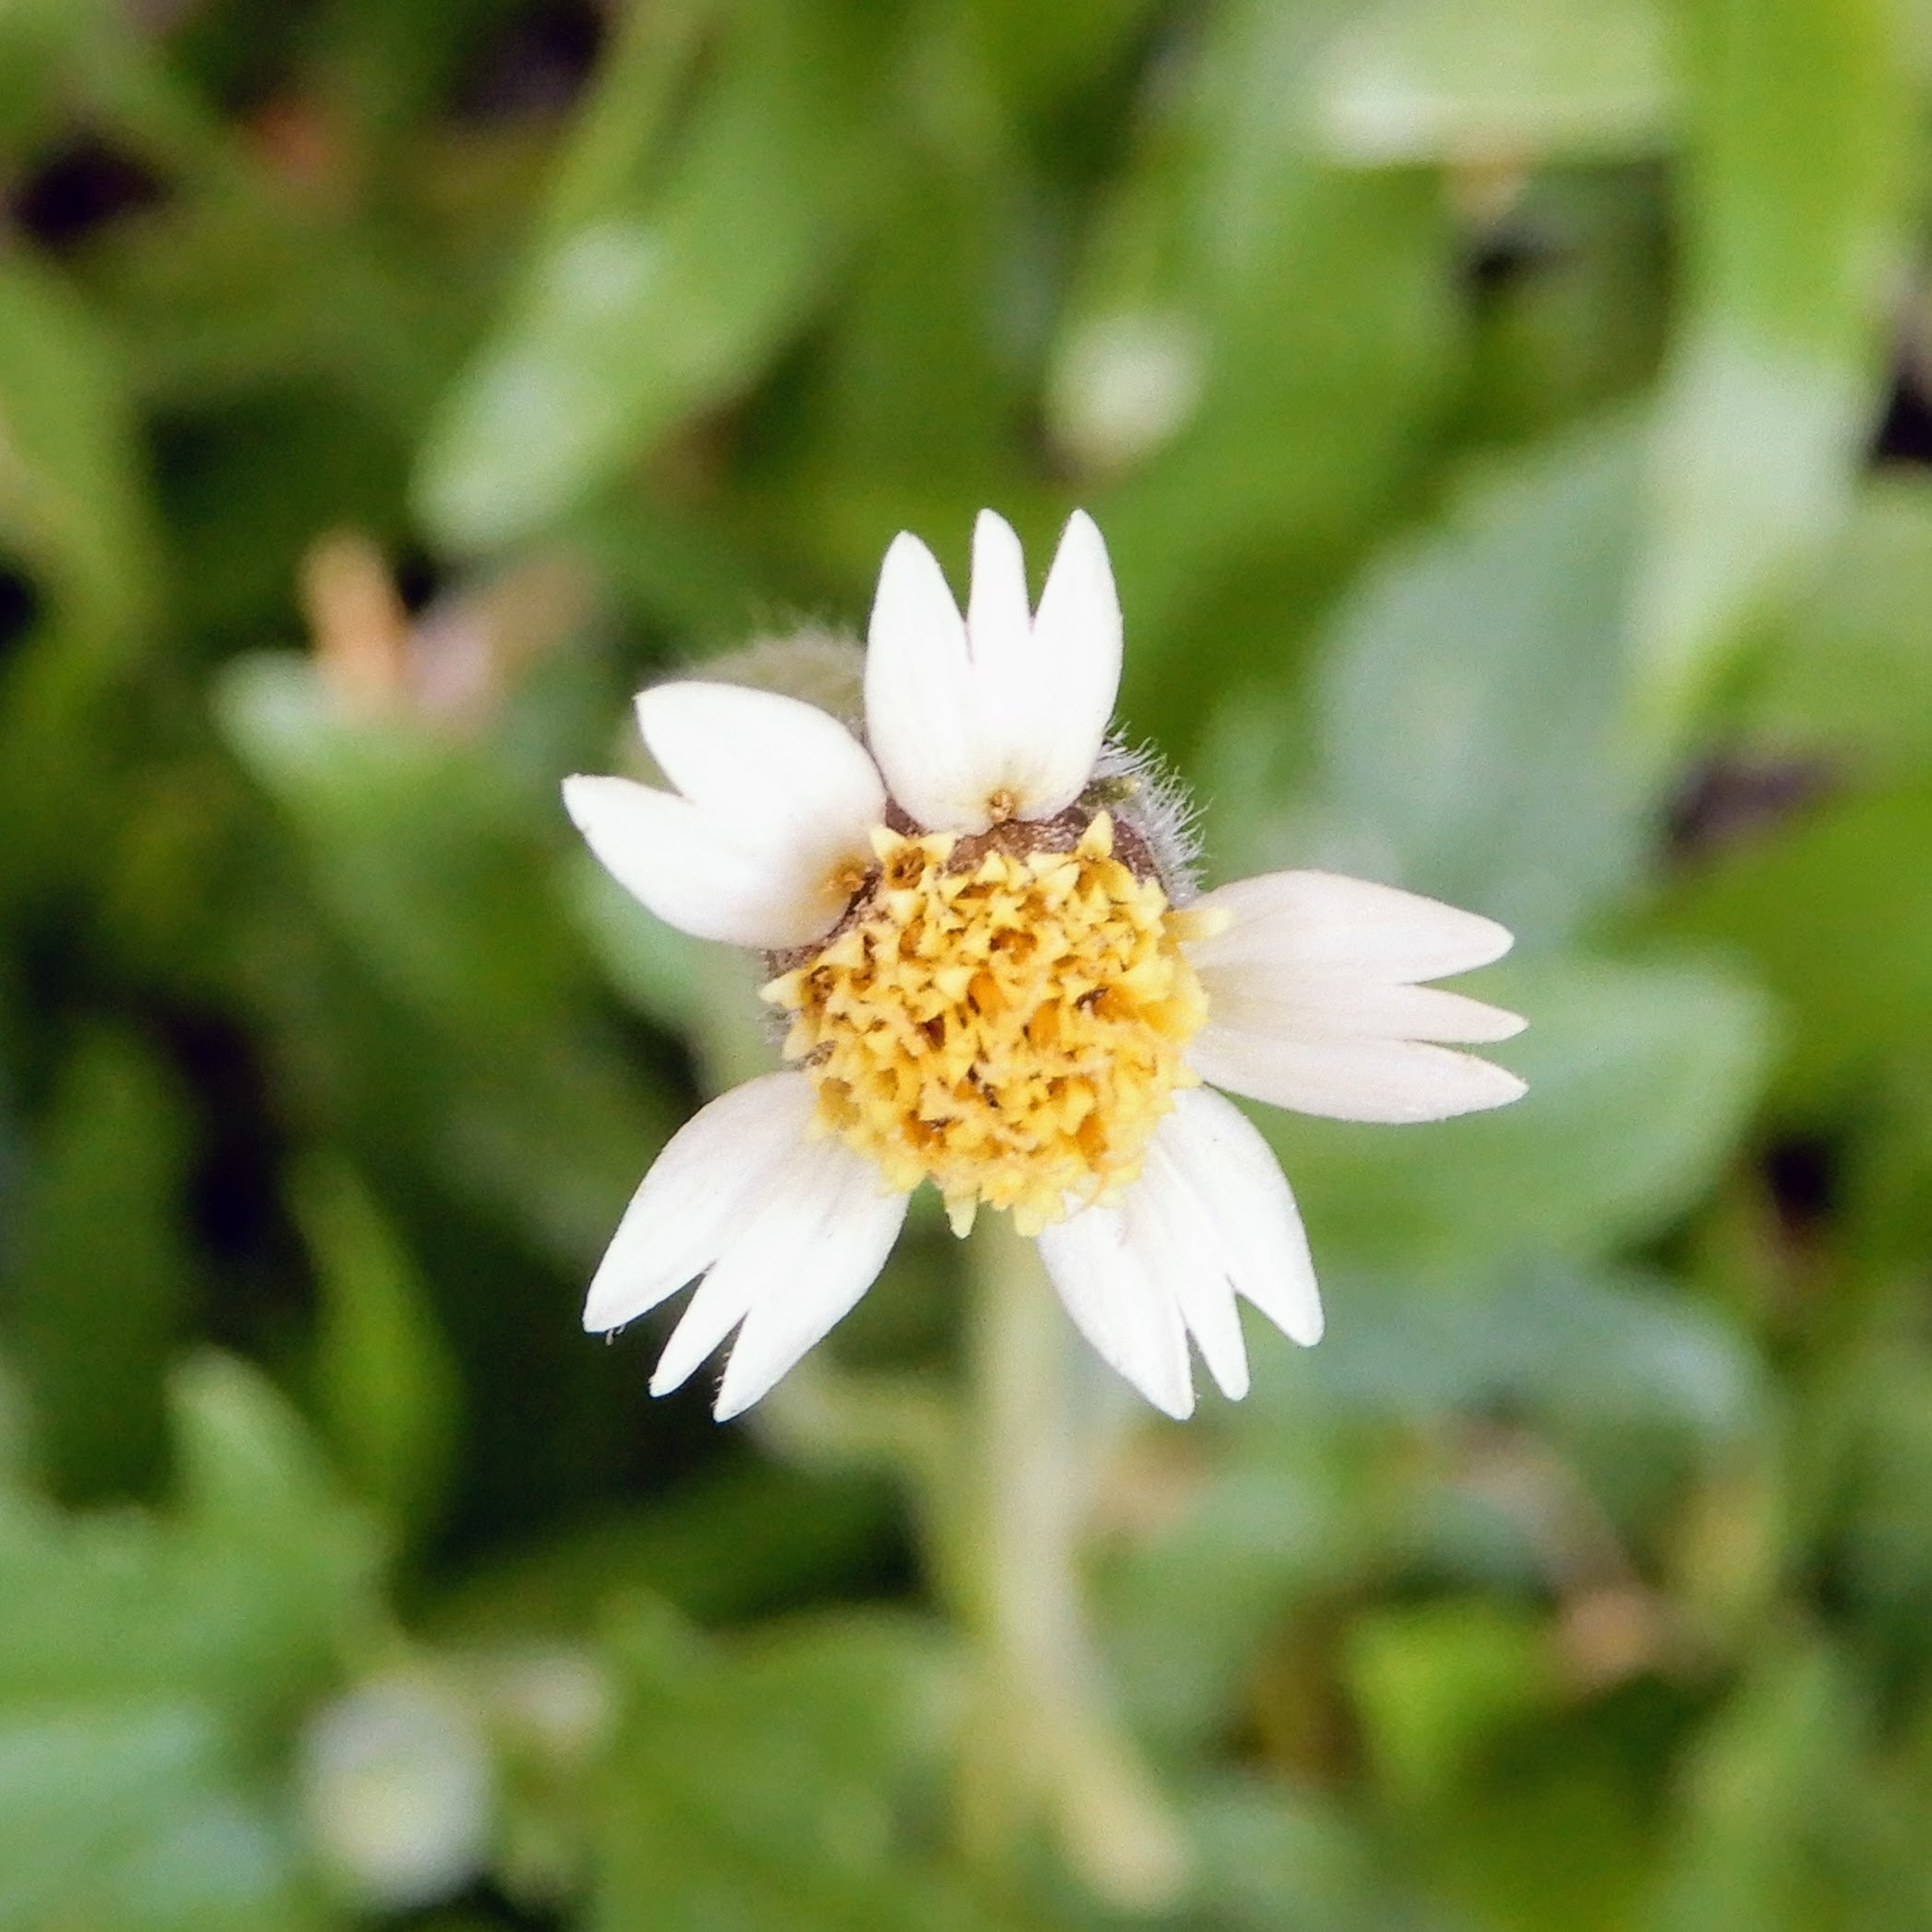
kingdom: Plantae
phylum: Tracheophyta
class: Magnoliopsida
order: Asterales
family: Asteraceae
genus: Tridax
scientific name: Tridax procumbens
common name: Coatbuttons
